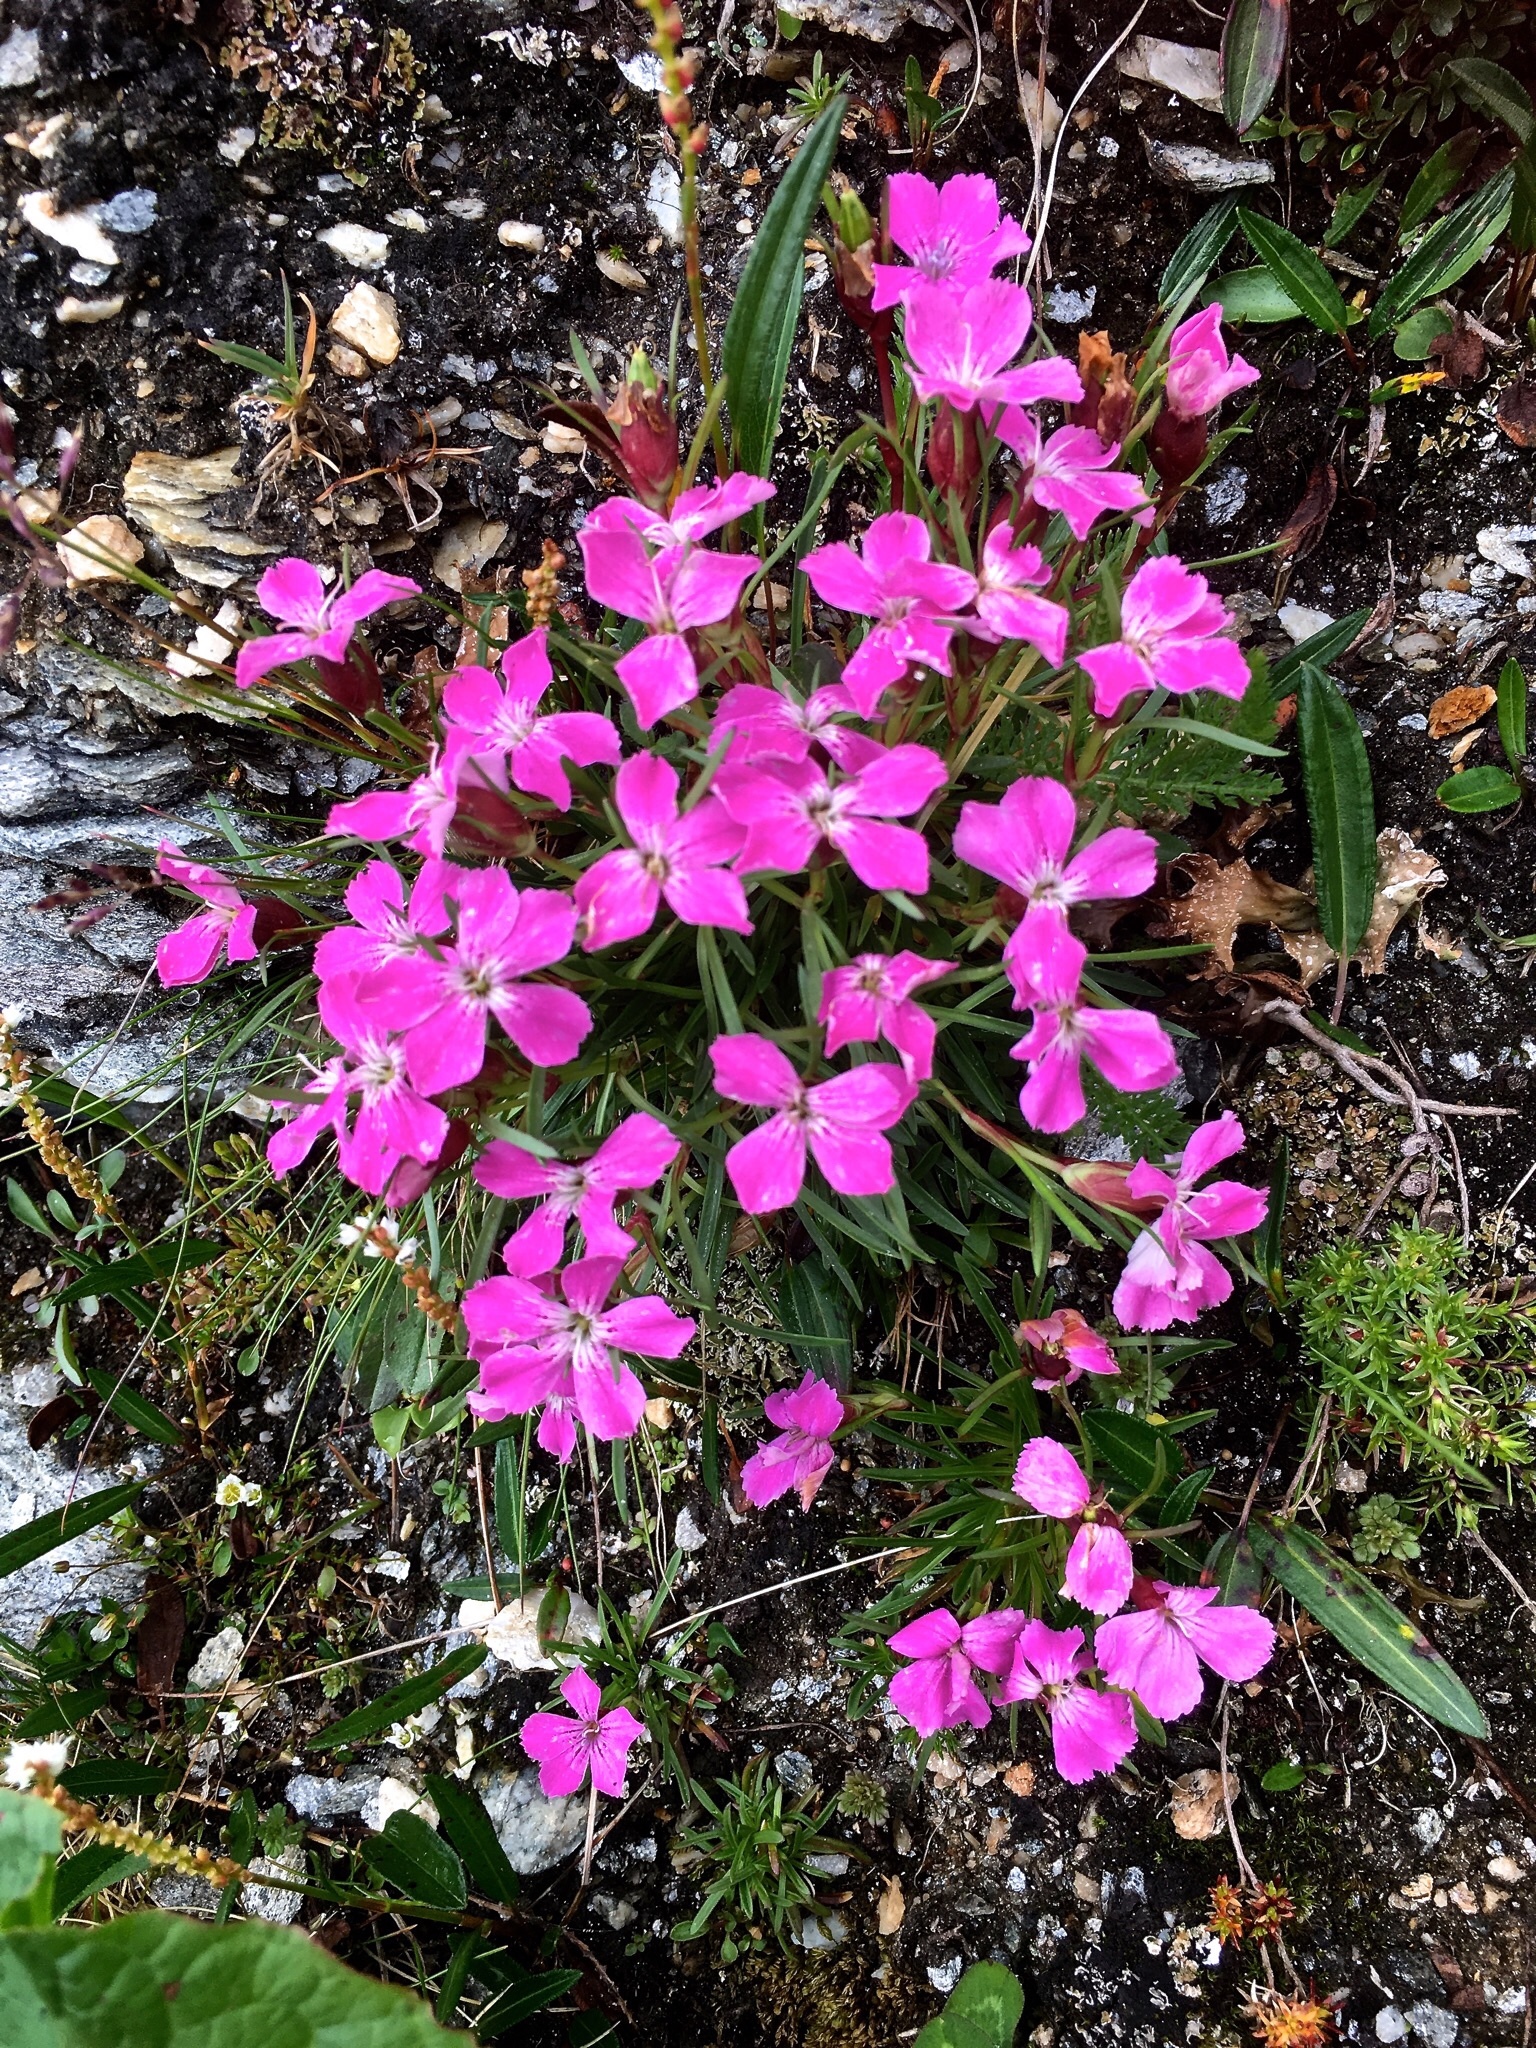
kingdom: Plantae
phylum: Tracheophyta
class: Magnoliopsida
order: Caryophyllales
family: Caryophyllaceae
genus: Dianthus
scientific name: Dianthus glacialis
